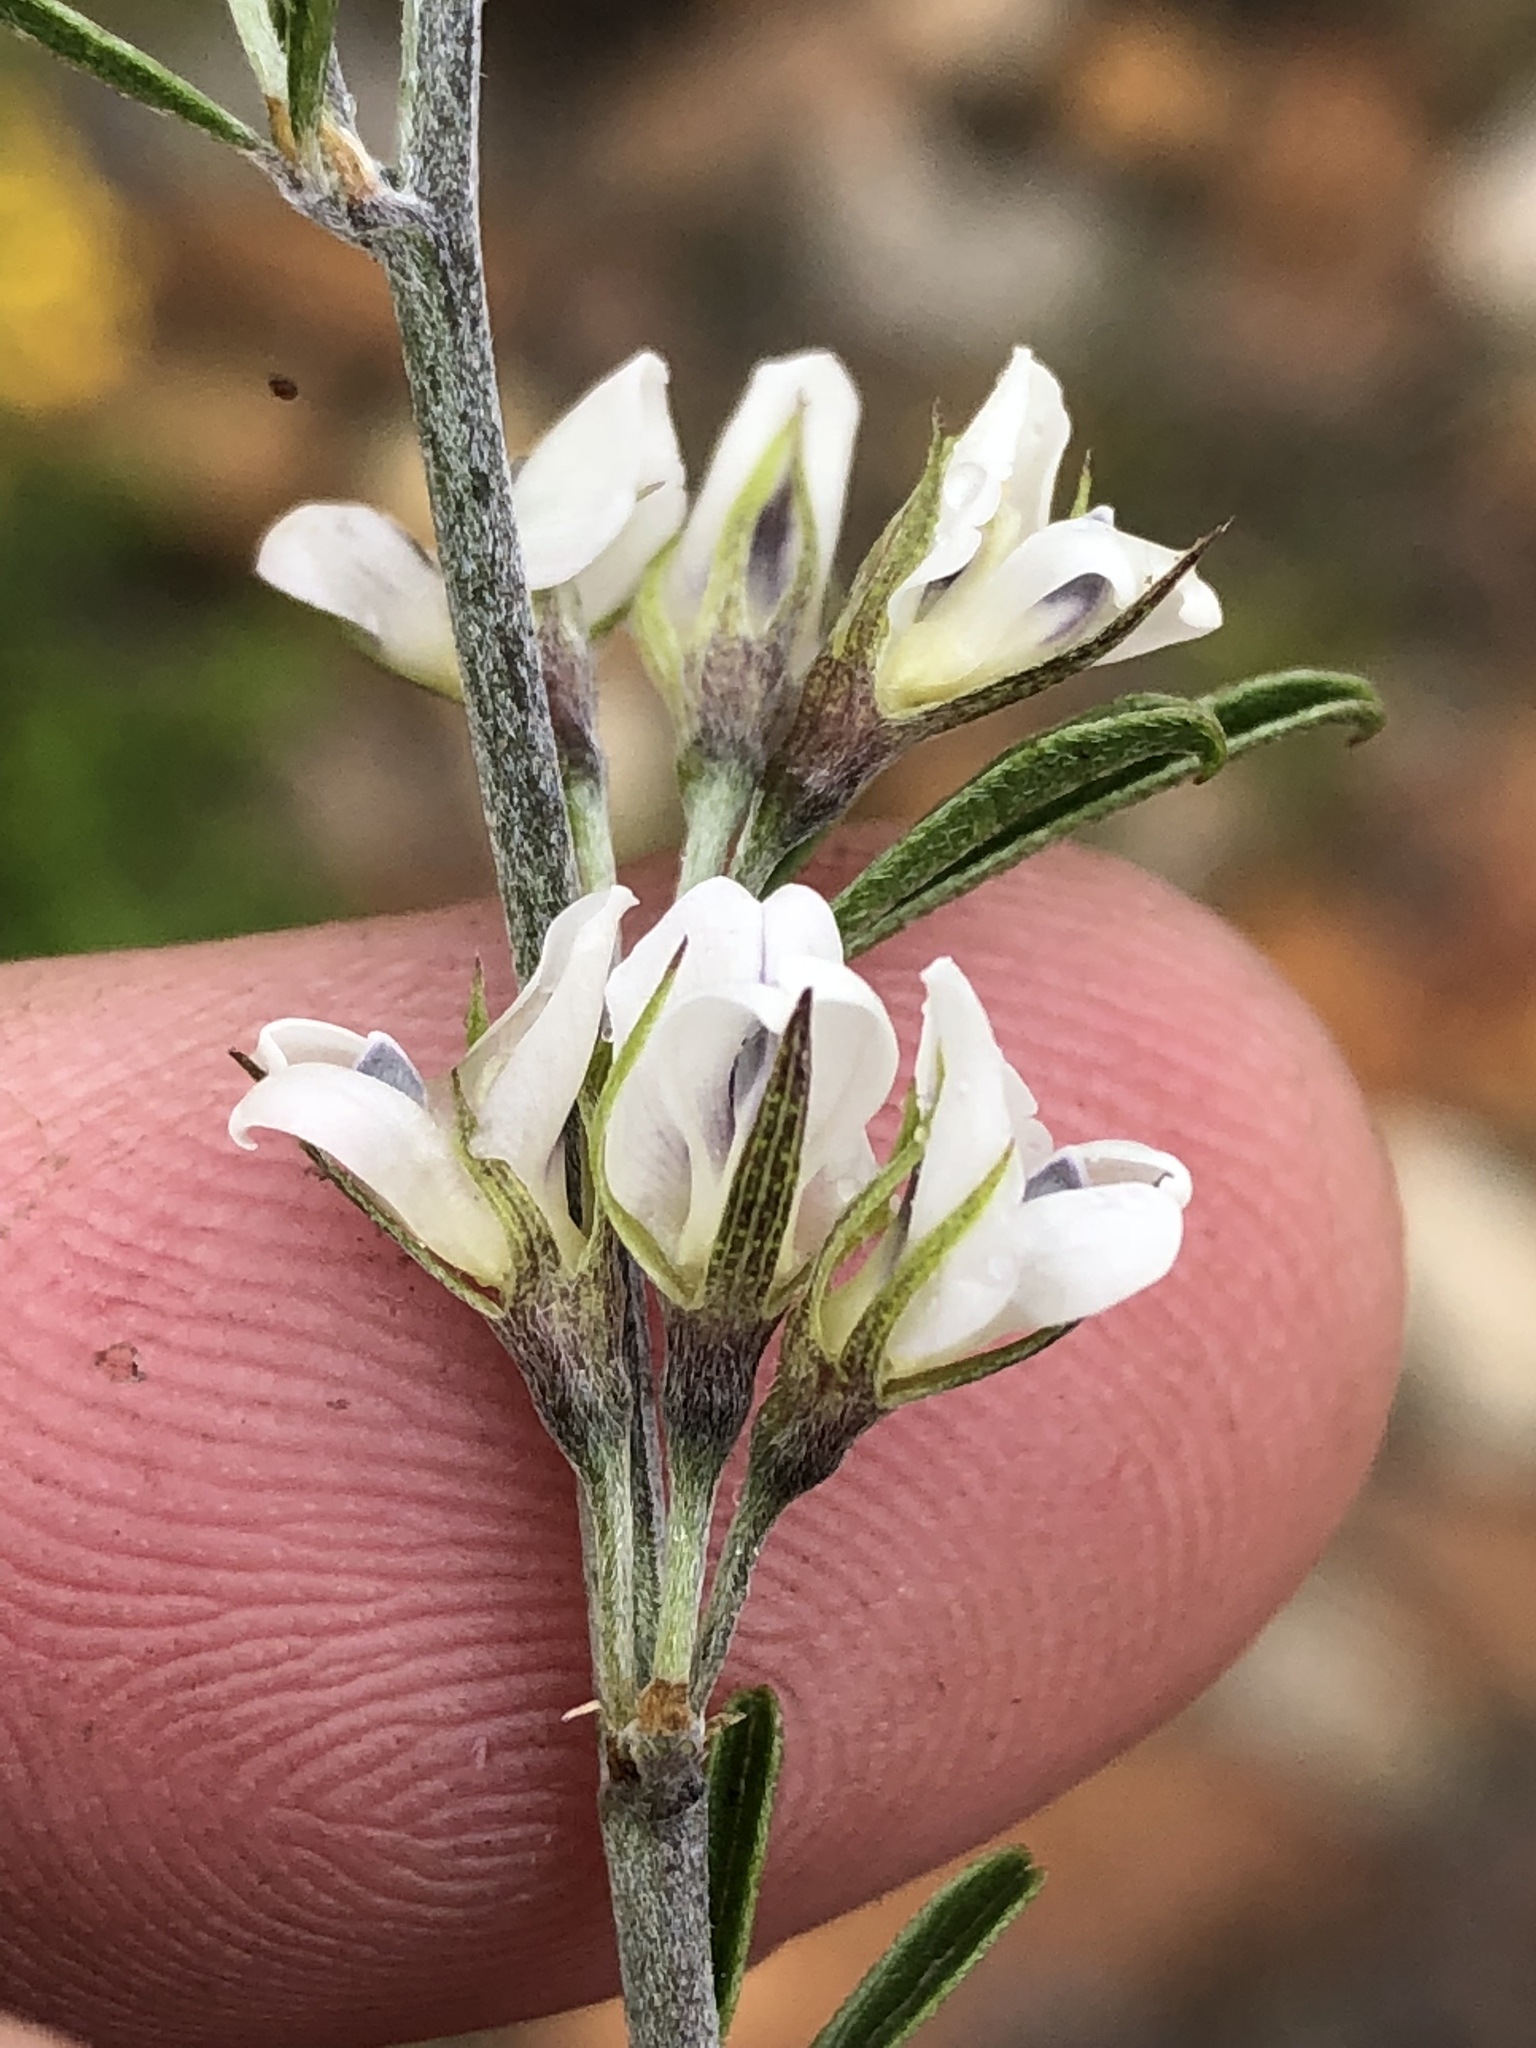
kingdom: Plantae
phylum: Tracheophyta
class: Magnoliopsida
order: Fabales
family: Fabaceae
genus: Psoralea
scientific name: Psoralea candicans
